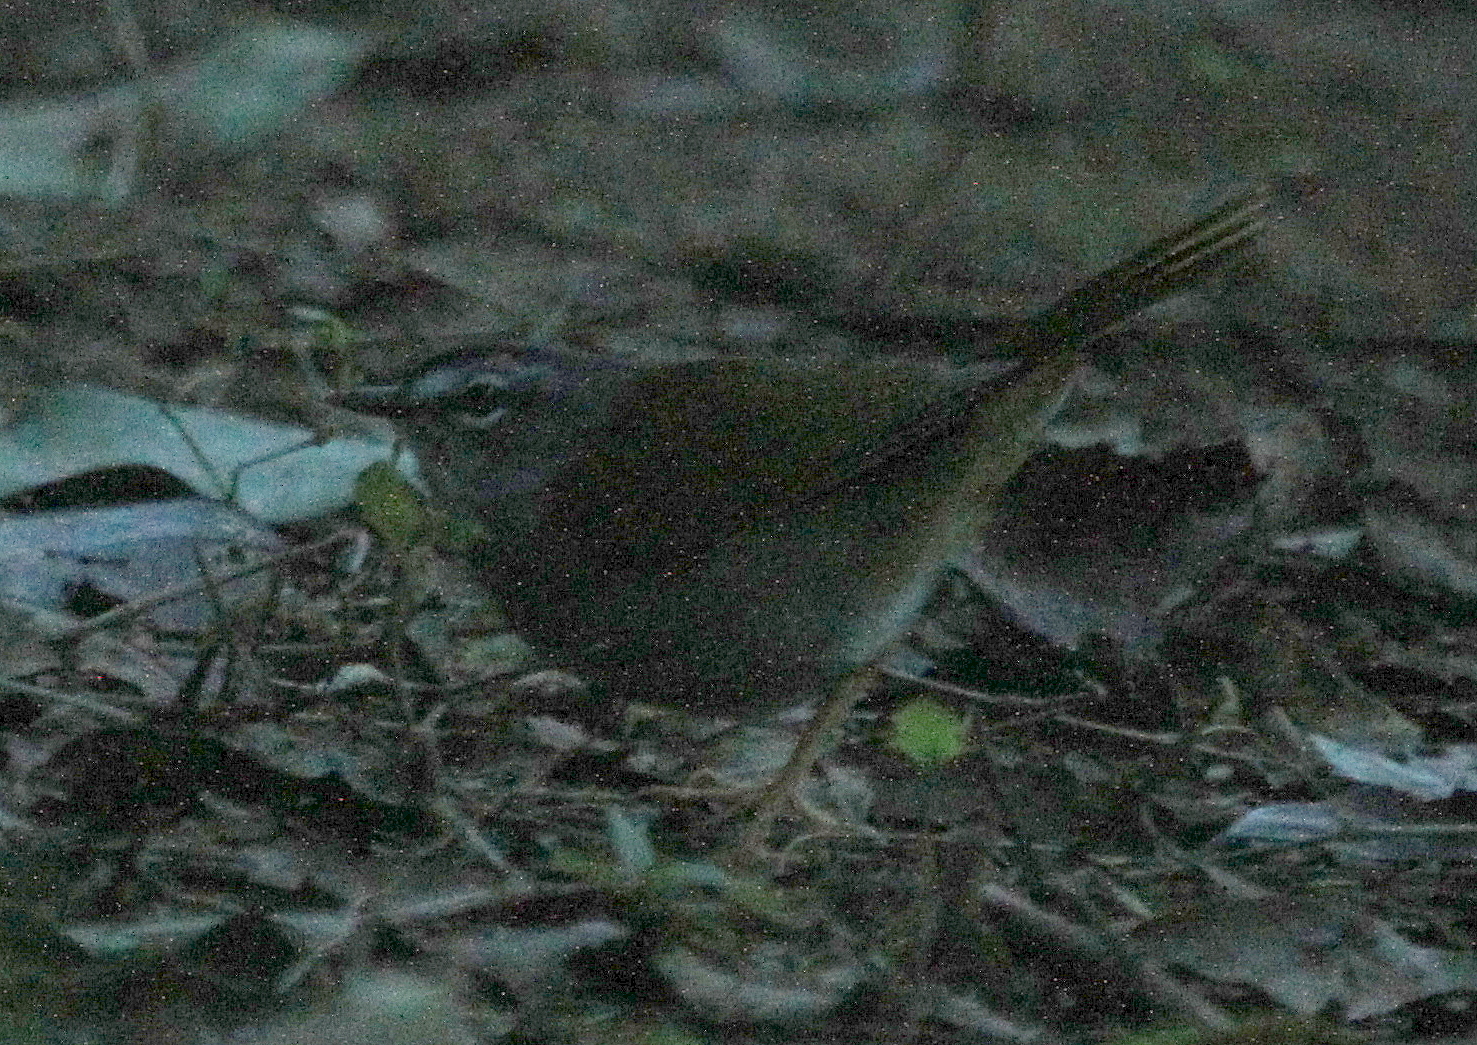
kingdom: Animalia
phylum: Chordata
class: Aves
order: Passeriformes
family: Parulidae
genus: Myiothlypis
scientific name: Myiothlypis leucoblephara
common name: White-rimmed warbler
